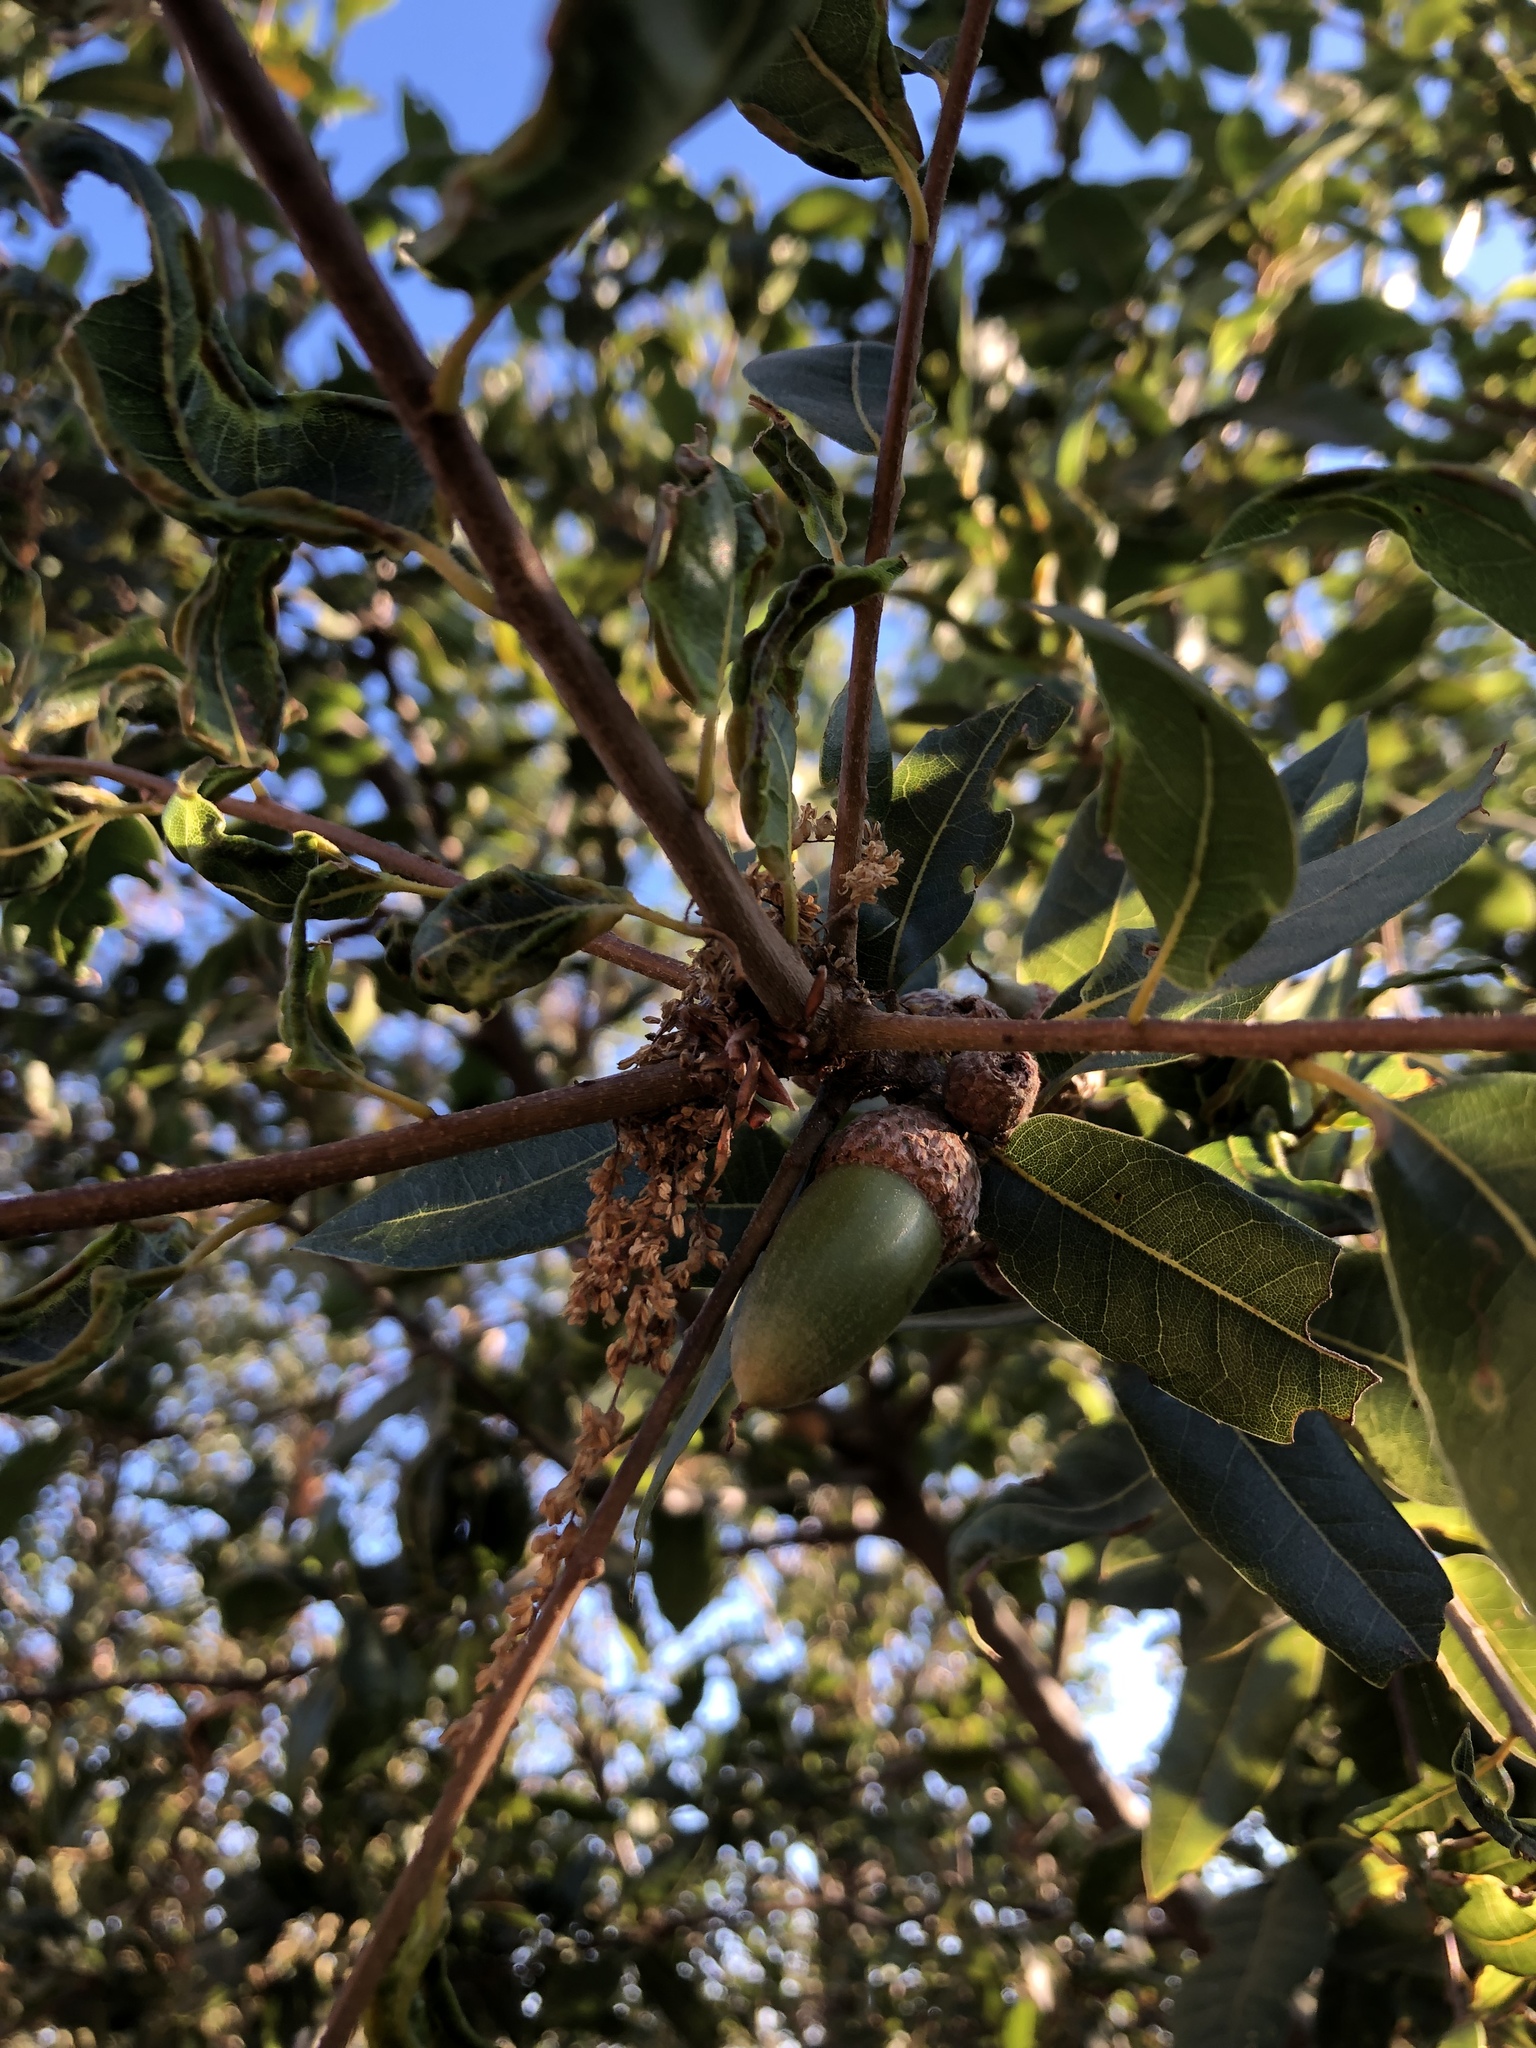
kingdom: Plantae
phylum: Tracheophyta
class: Magnoliopsida
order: Fagales
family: Fagaceae
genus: Quercus
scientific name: Quercus parvula
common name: Santa cruz island oak
